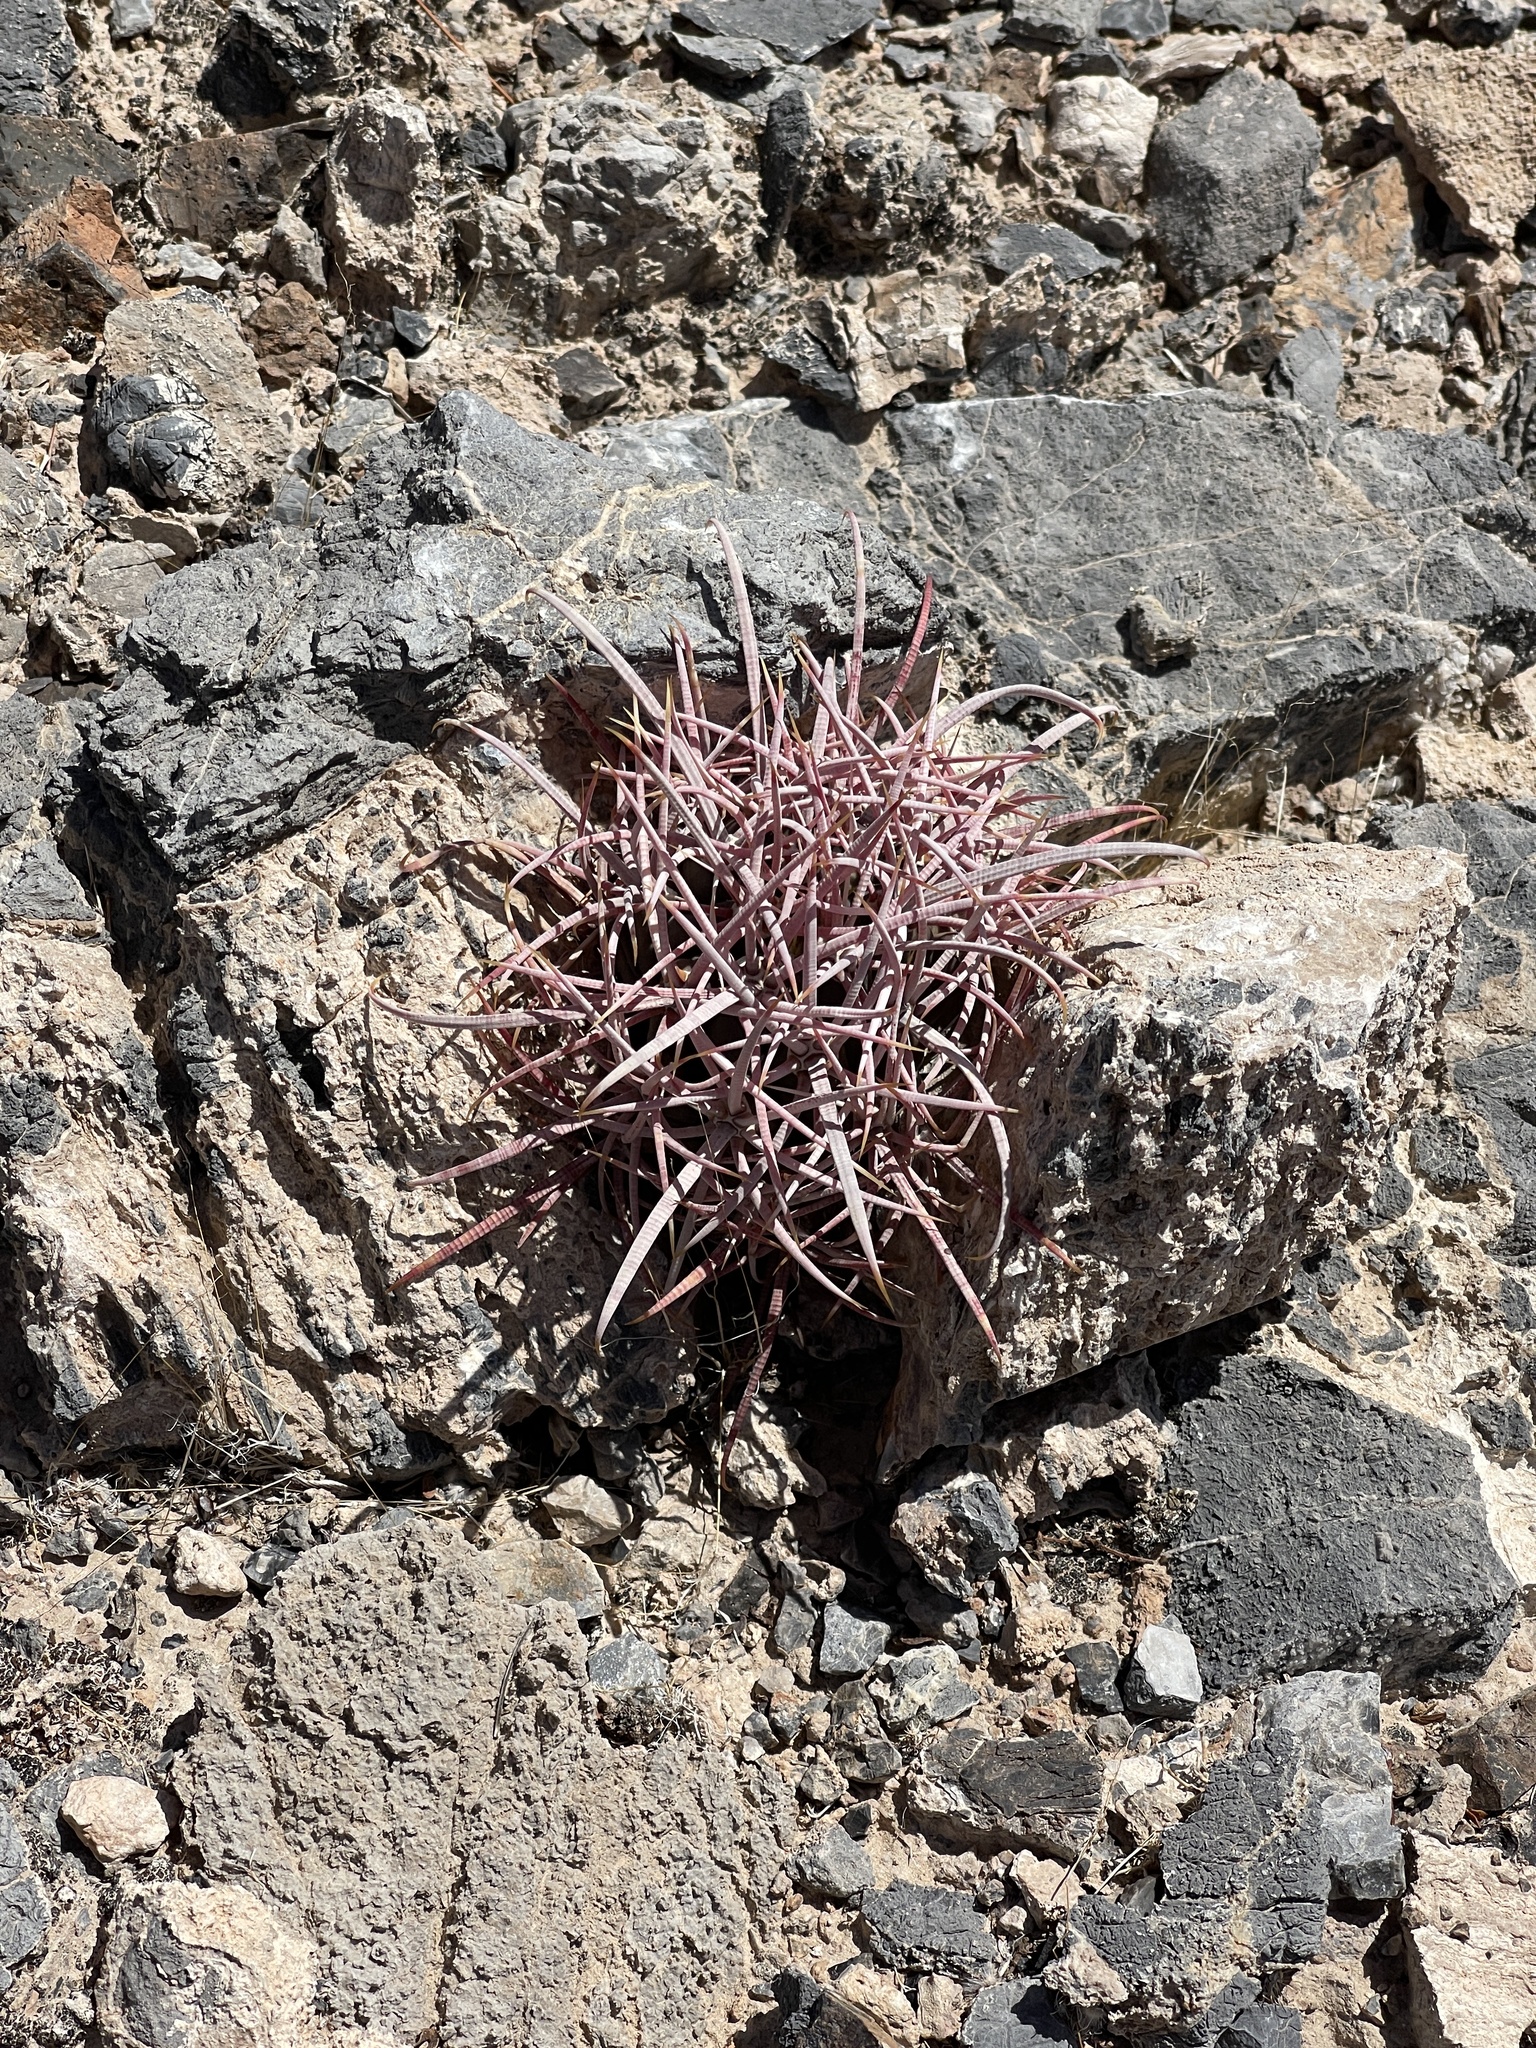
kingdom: Plantae
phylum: Tracheophyta
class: Magnoliopsida
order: Caryophyllales
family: Cactaceae
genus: Echinocactus
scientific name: Echinocactus polycephalus
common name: Cottontop cactus
